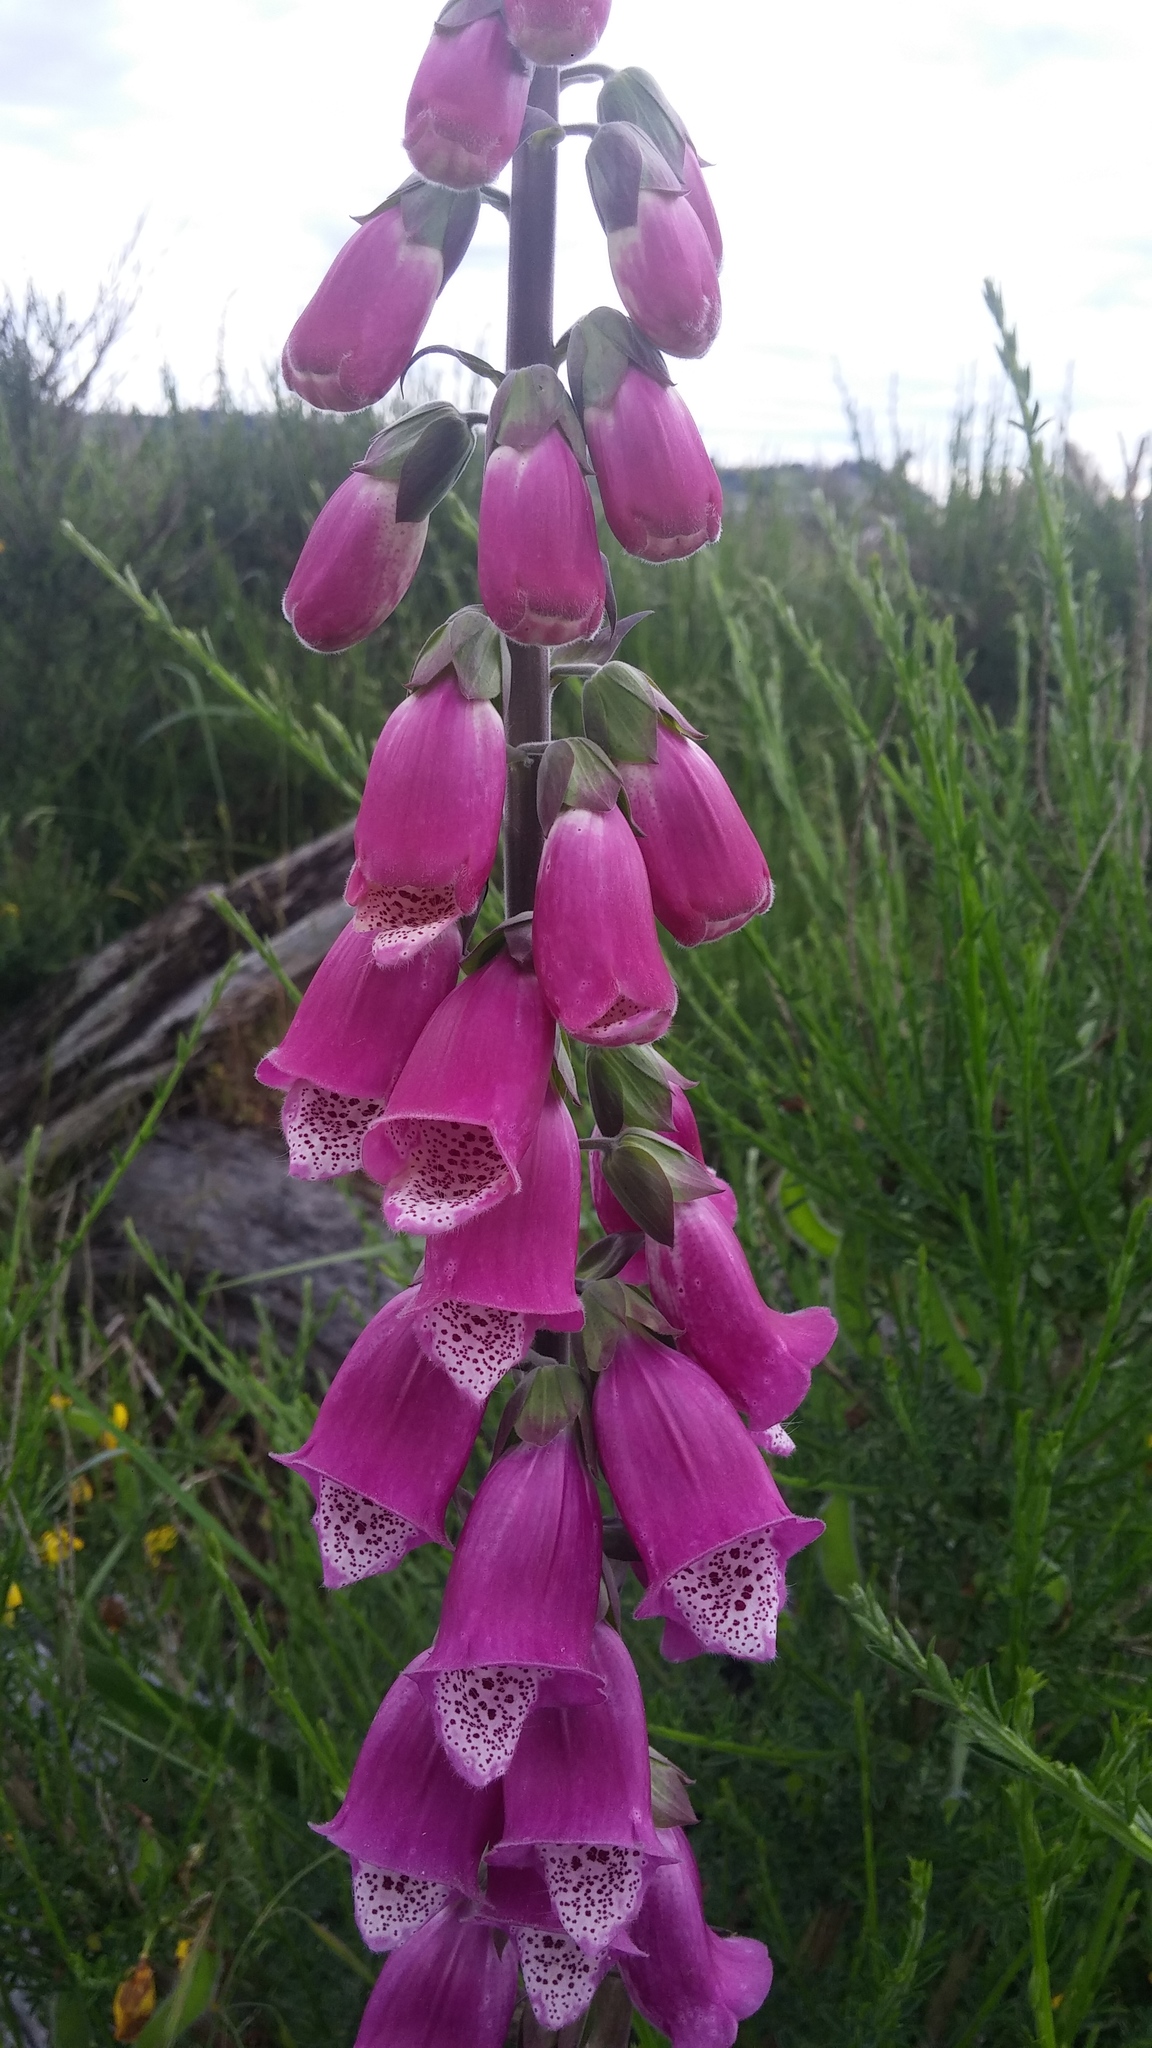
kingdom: Plantae
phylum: Tracheophyta
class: Magnoliopsida
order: Lamiales
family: Plantaginaceae
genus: Digitalis
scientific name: Digitalis purpurea
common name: Foxglove
